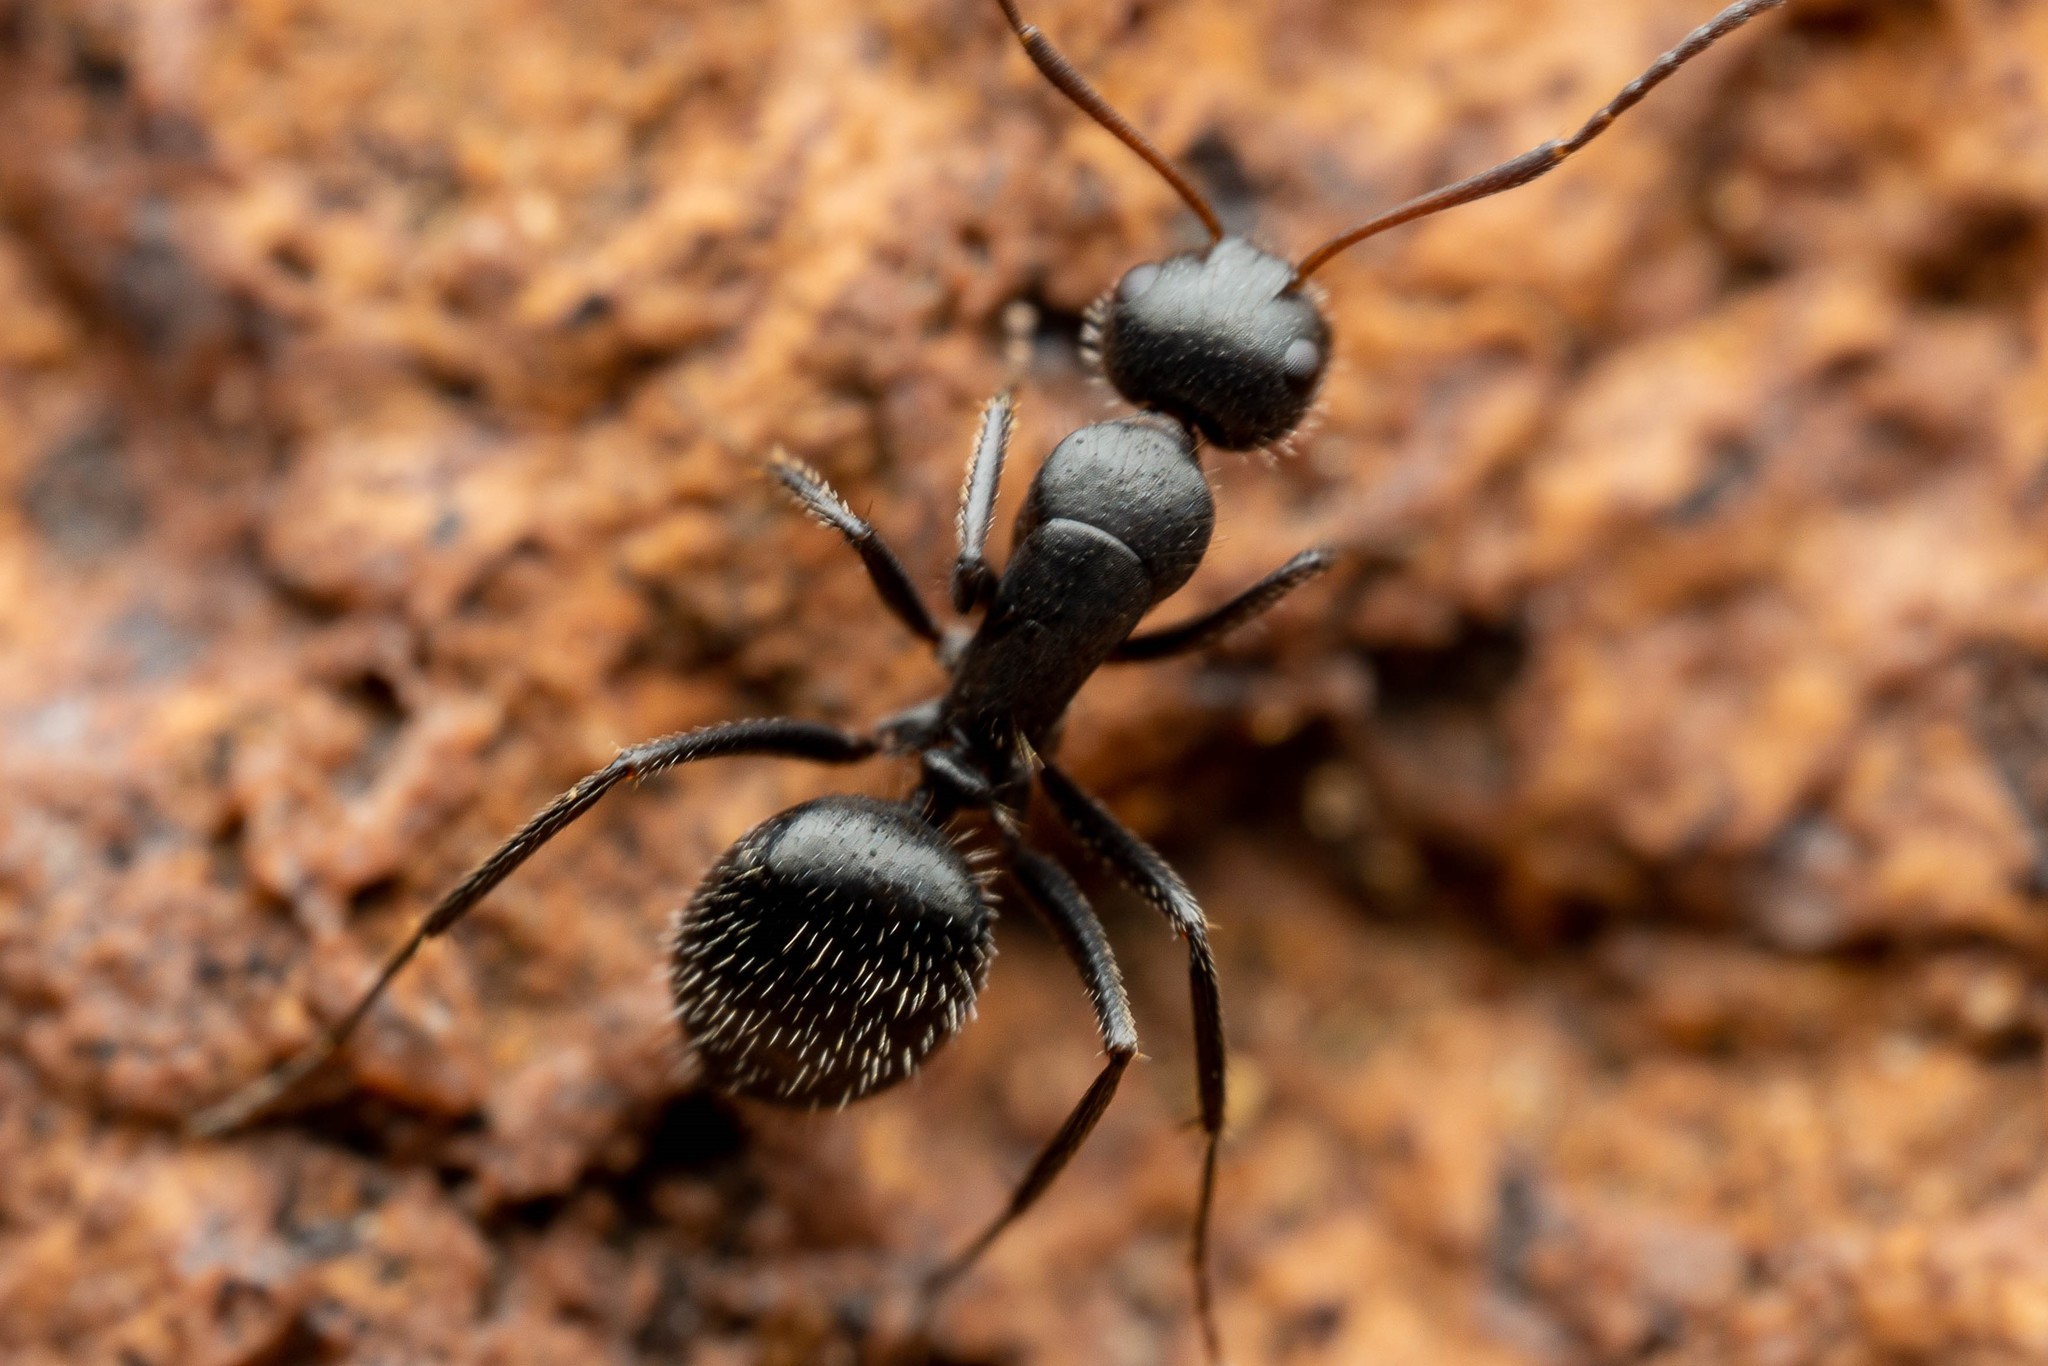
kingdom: Animalia
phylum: Arthropoda
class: Insecta
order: Hymenoptera
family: Formicidae
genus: Camponotus
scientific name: Camponotus ulcerosus
